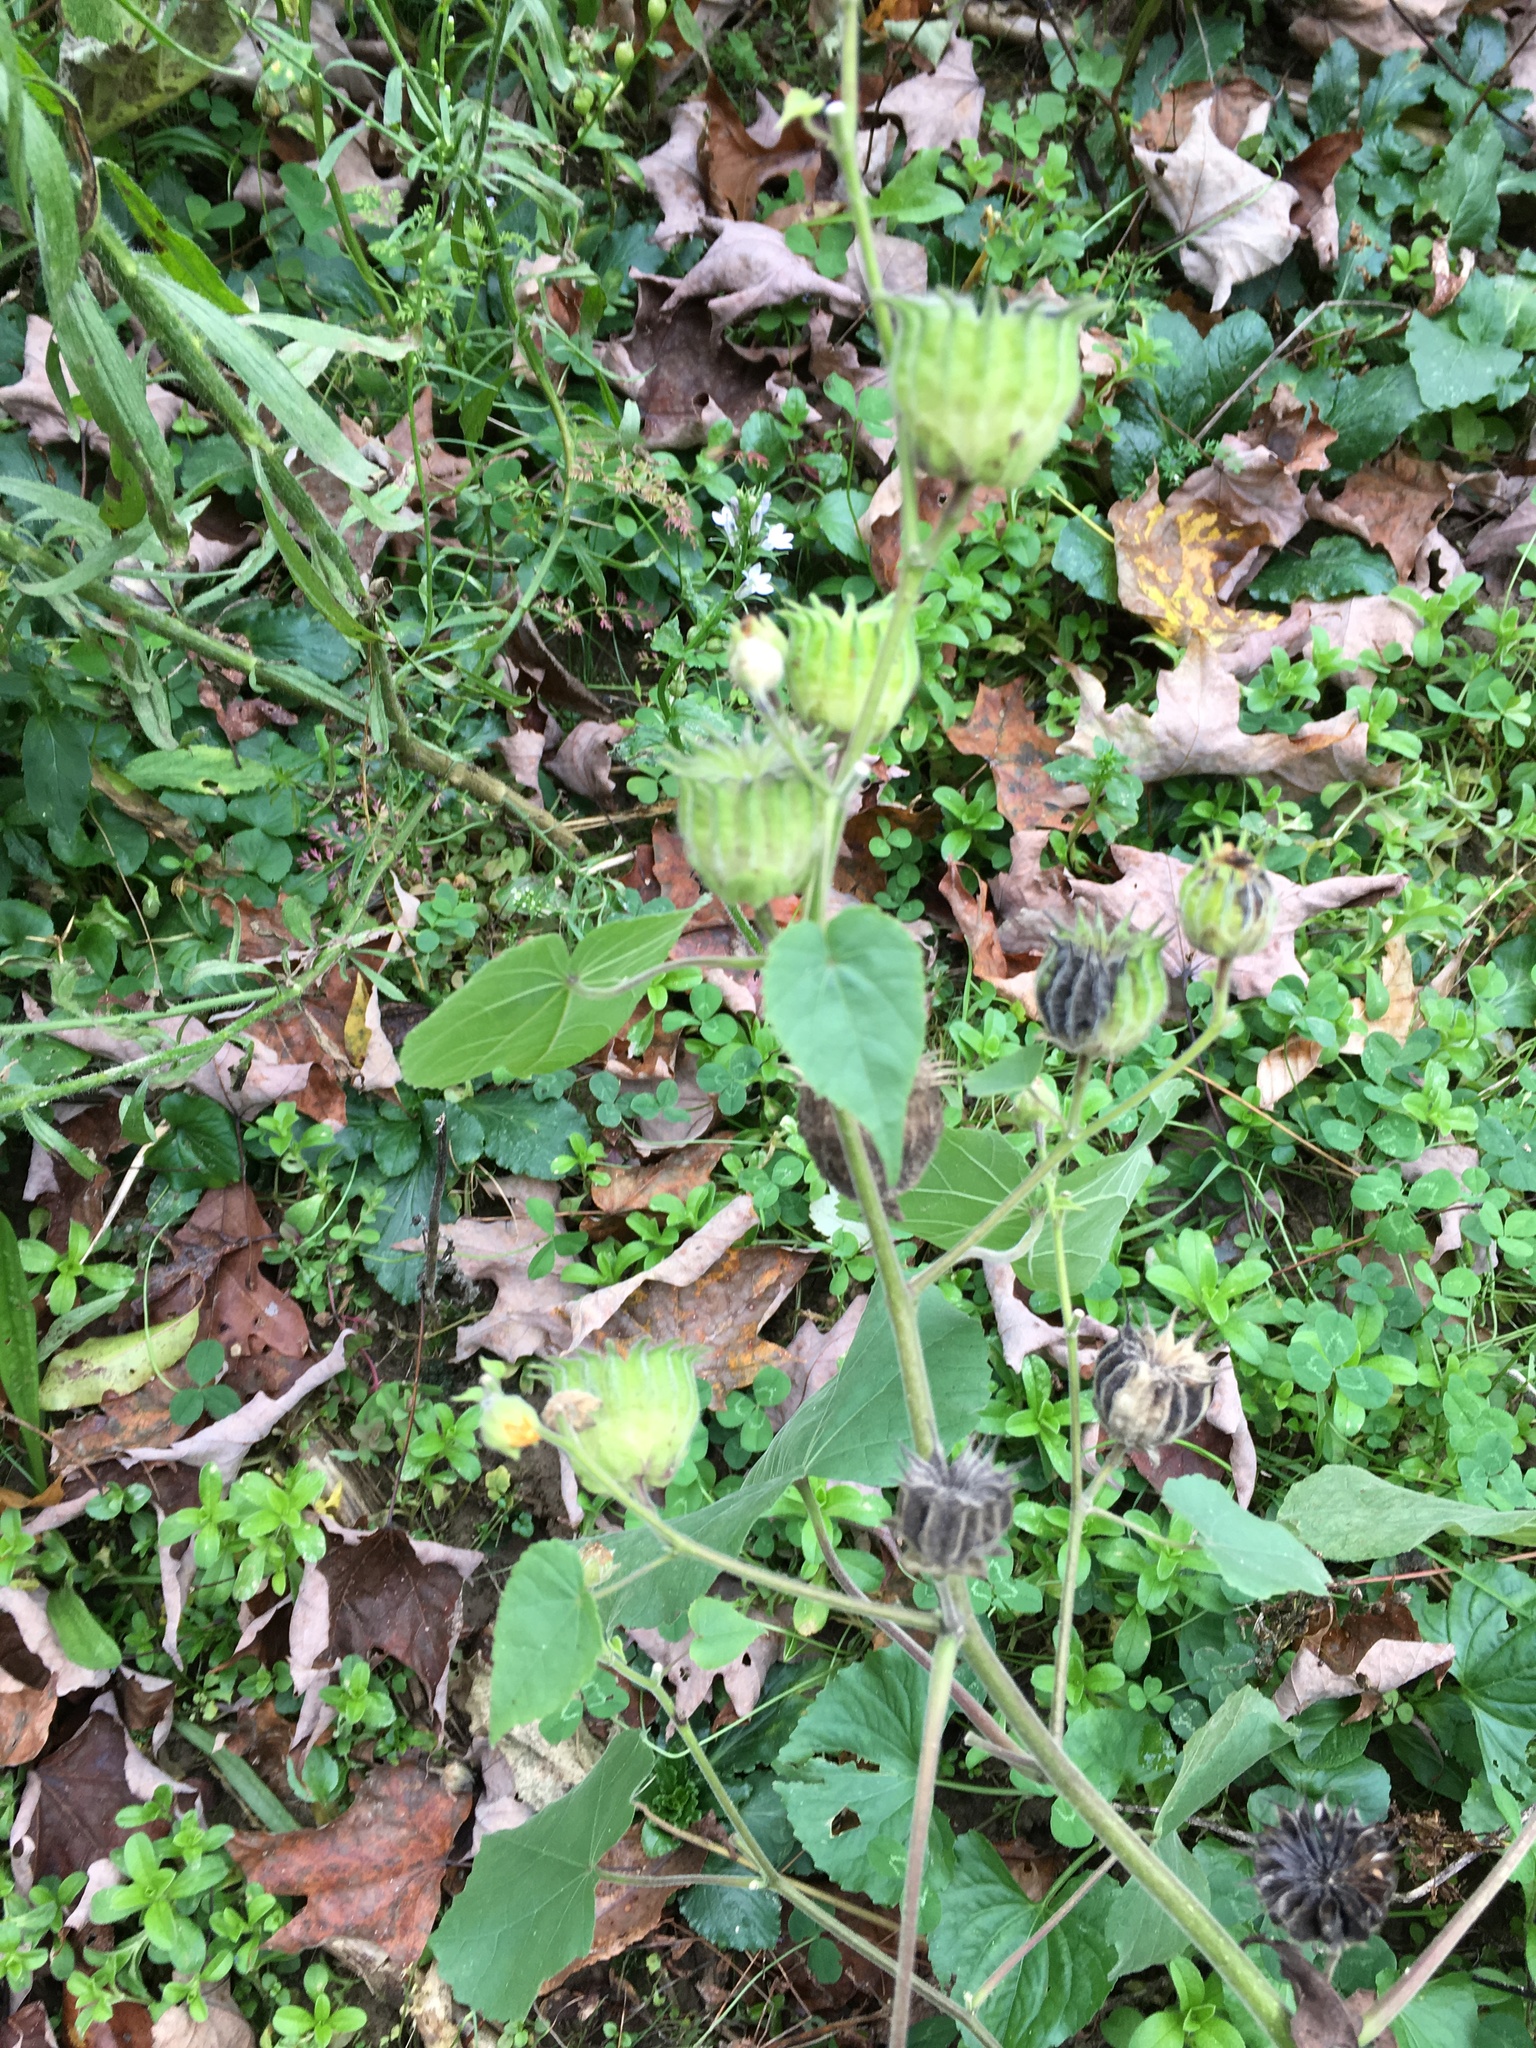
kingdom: Plantae
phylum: Tracheophyta
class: Magnoliopsida
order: Malvales
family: Malvaceae
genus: Abutilon
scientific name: Abutilon theophrasti
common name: Velvetleaf
